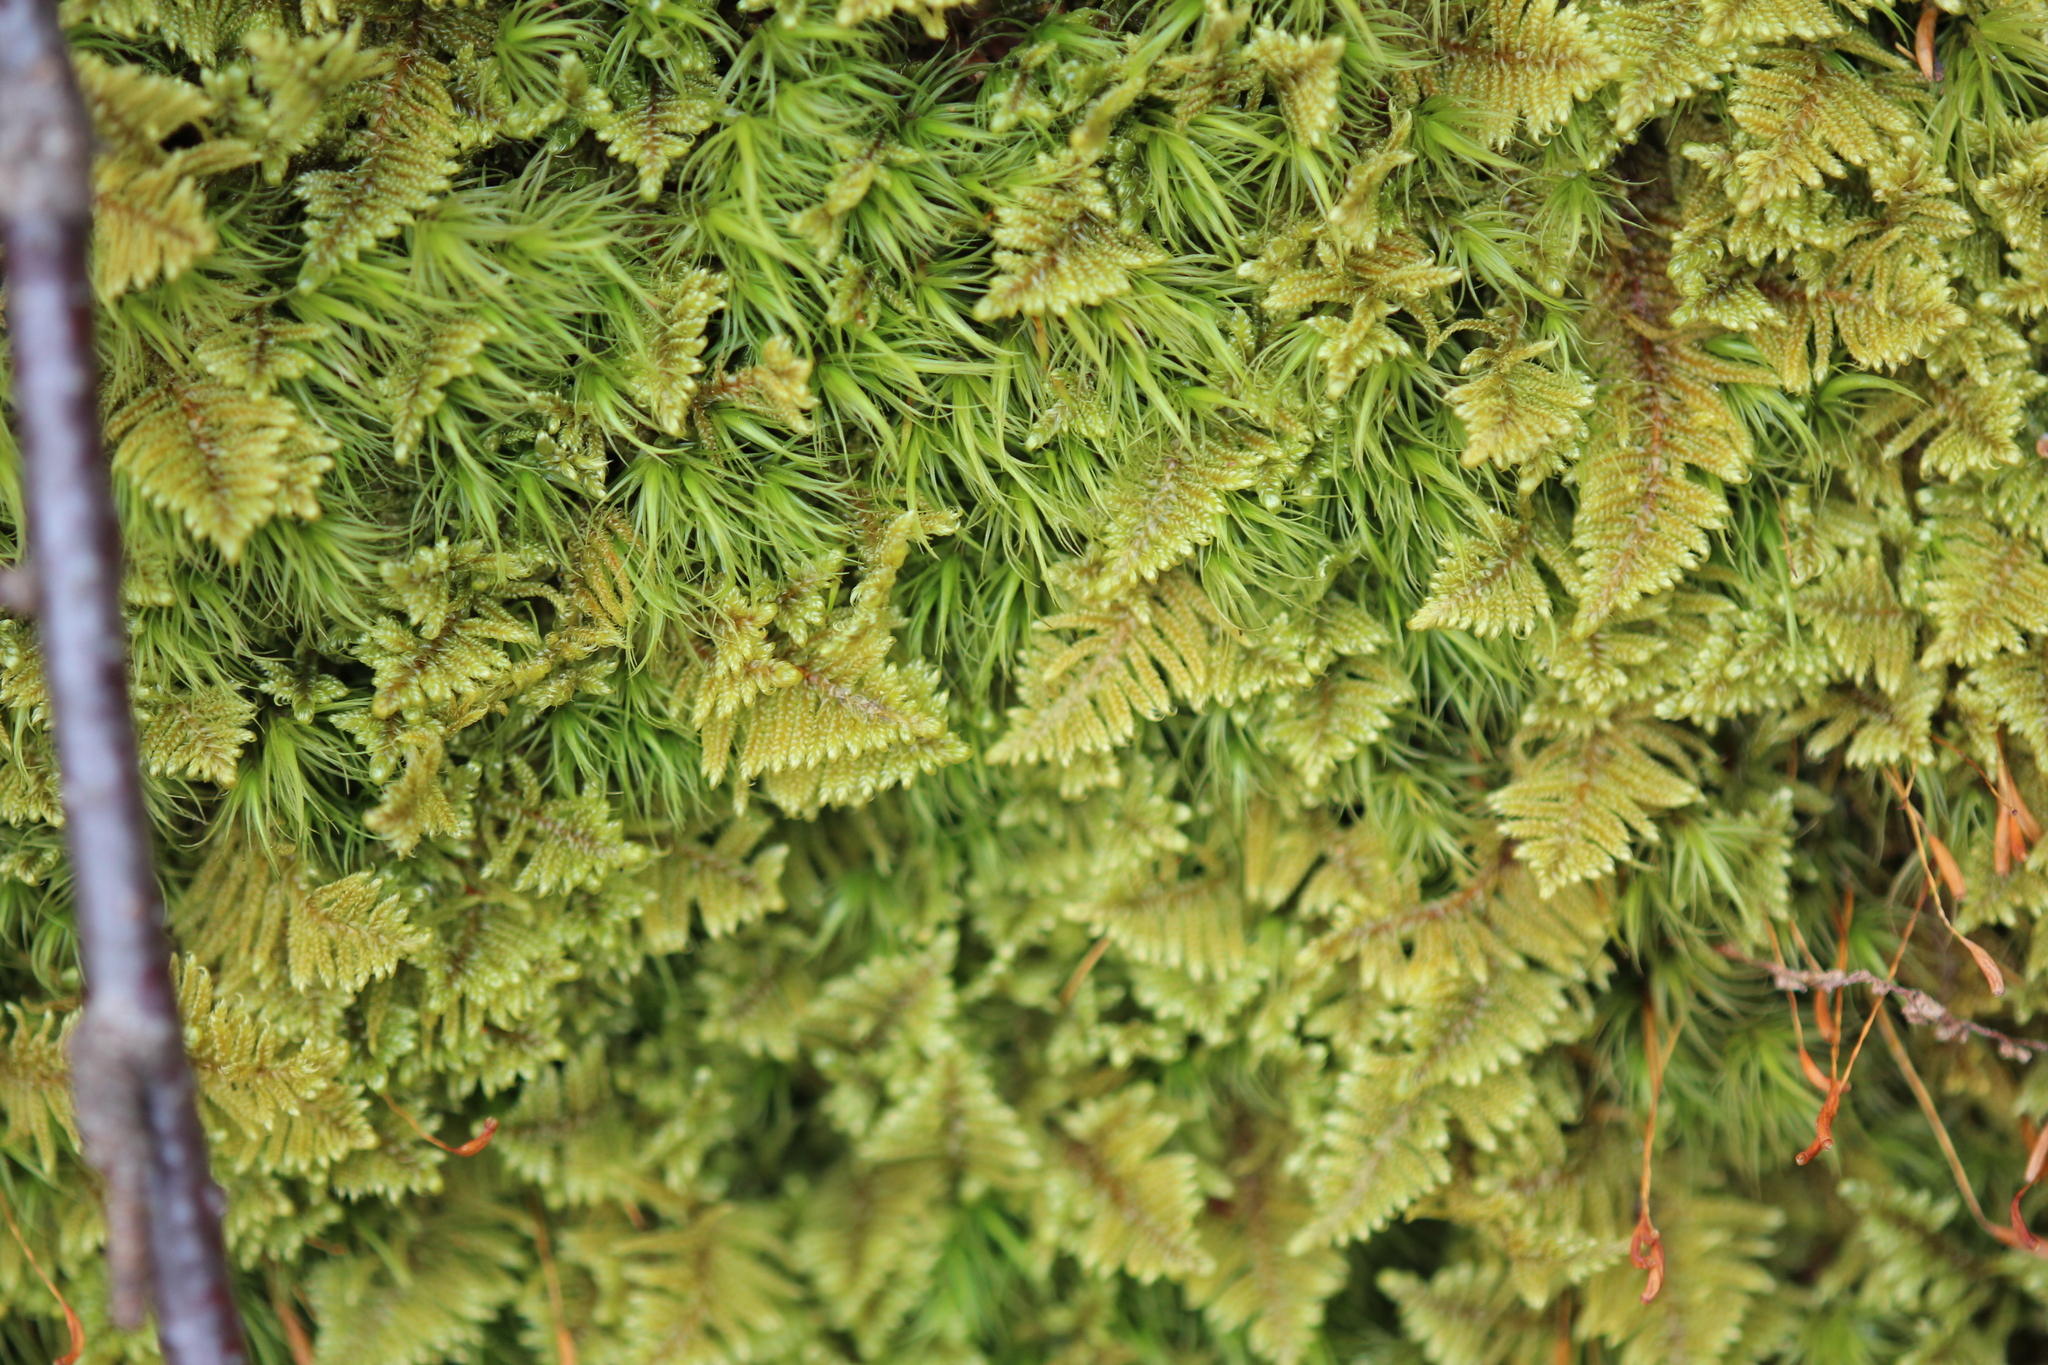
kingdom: Plantae
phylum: Bryophyta
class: Bryopsida
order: Hypnales
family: Callicladiaceae
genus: Callicladium
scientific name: Callicladium imponens
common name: Brocade moss
